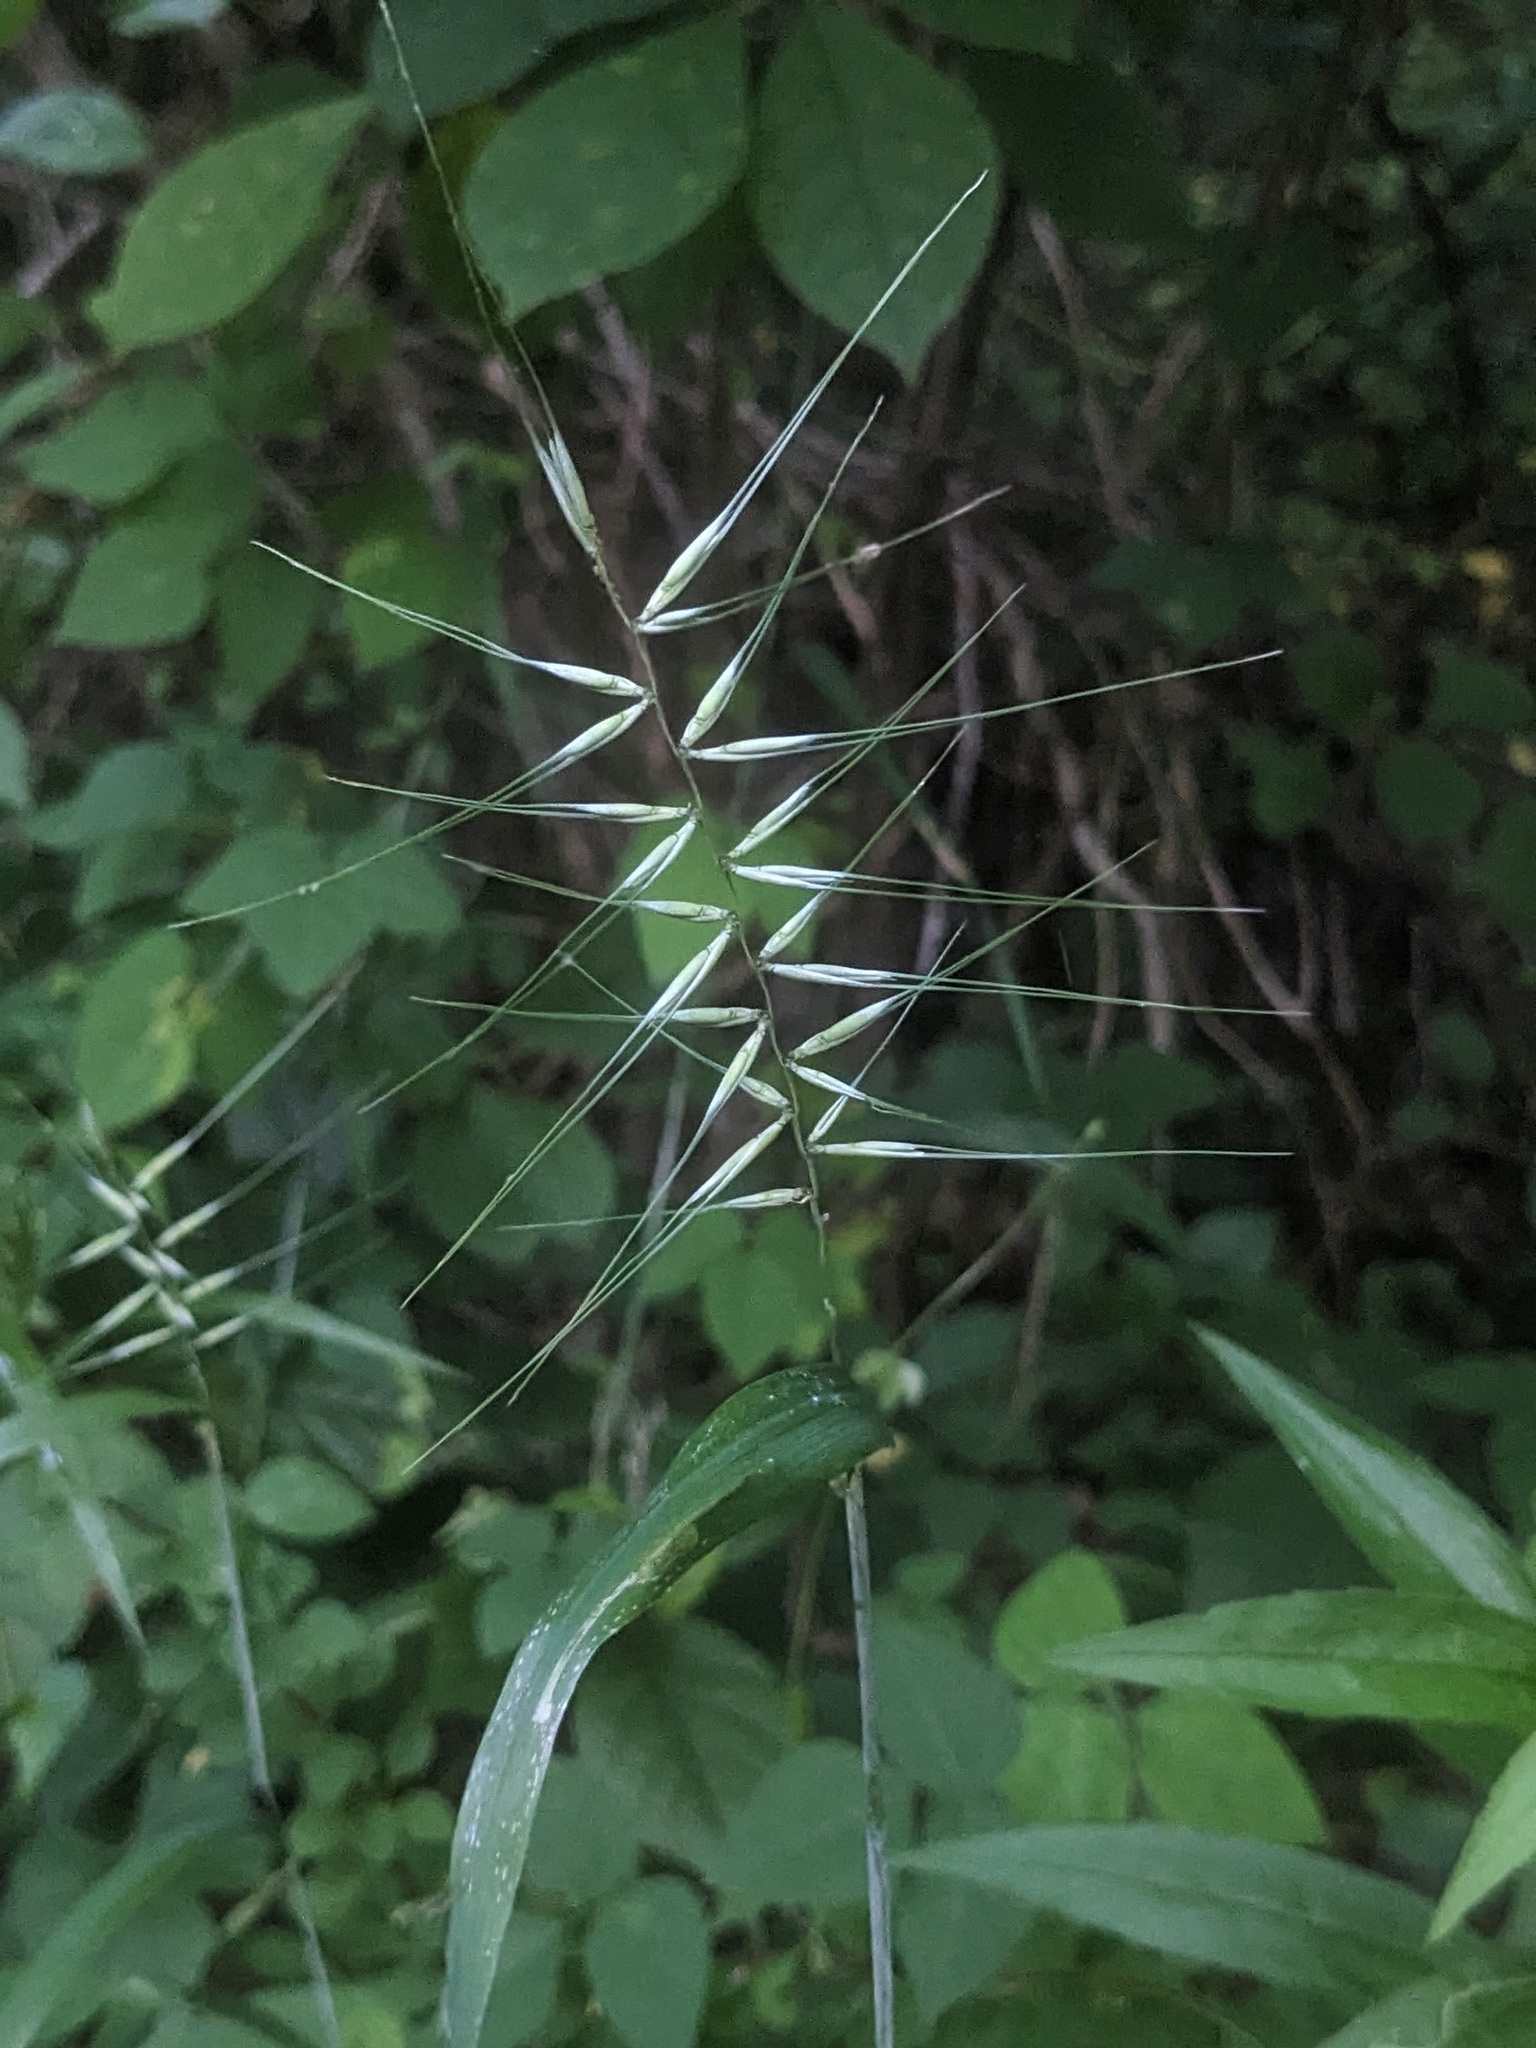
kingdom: Plantae
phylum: Tracheophyta
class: Liliopsida
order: Poales
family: Poaceae
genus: Elymus
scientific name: Elymus hystrix
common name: Bottlebrush grass
